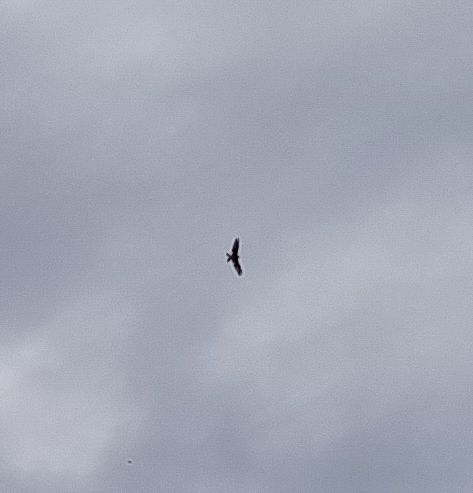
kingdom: Animalia
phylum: Chordata
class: Aves
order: Accipitriformes
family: Accipitridae
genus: Milvus
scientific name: Milvus milvus
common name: Red kite
